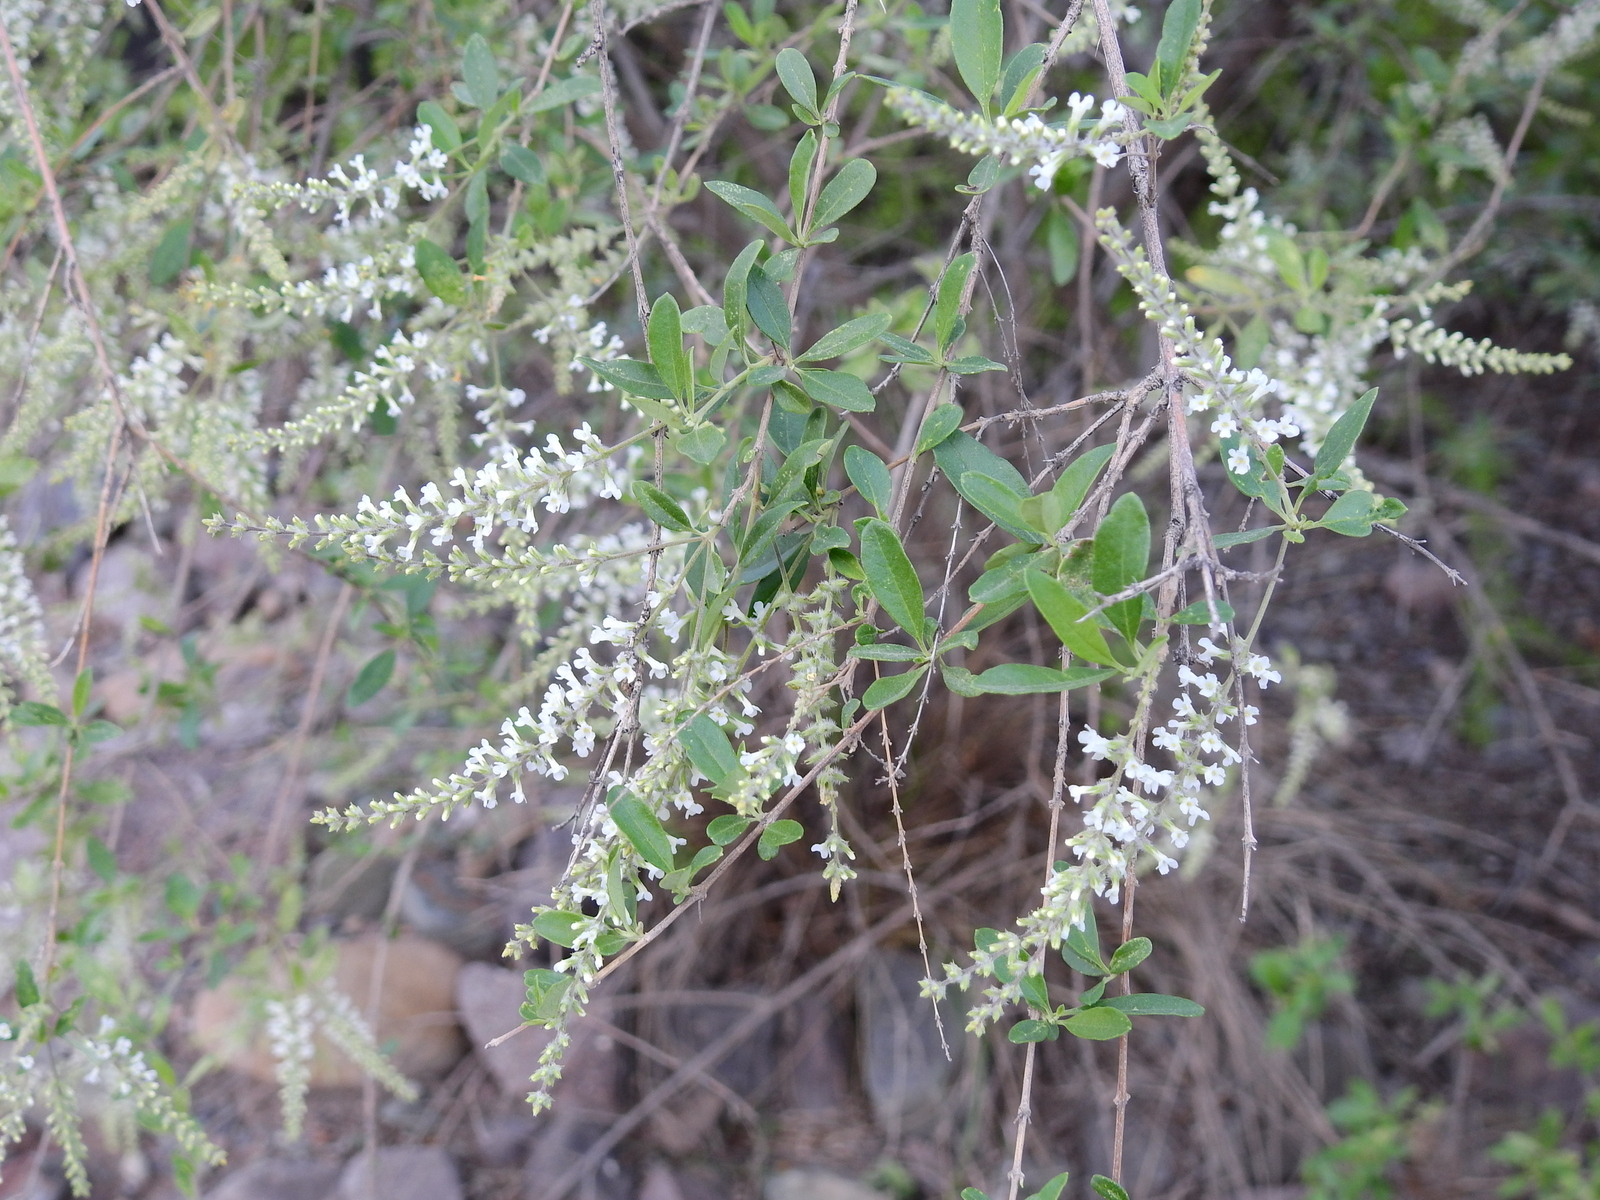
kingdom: Plantae
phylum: Tracheophyta
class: Magnoliopsida
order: Lamiales
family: Verbenaceae
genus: Aloysia
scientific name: Aloysia gratissima
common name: Common bee-brush
